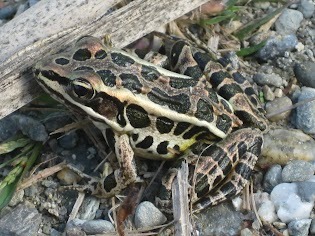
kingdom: Animalia
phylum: Chordata
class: Amphibia
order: Anura
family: Ranidae
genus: Lithobates
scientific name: Lithobates palustris
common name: Pickerel frog
